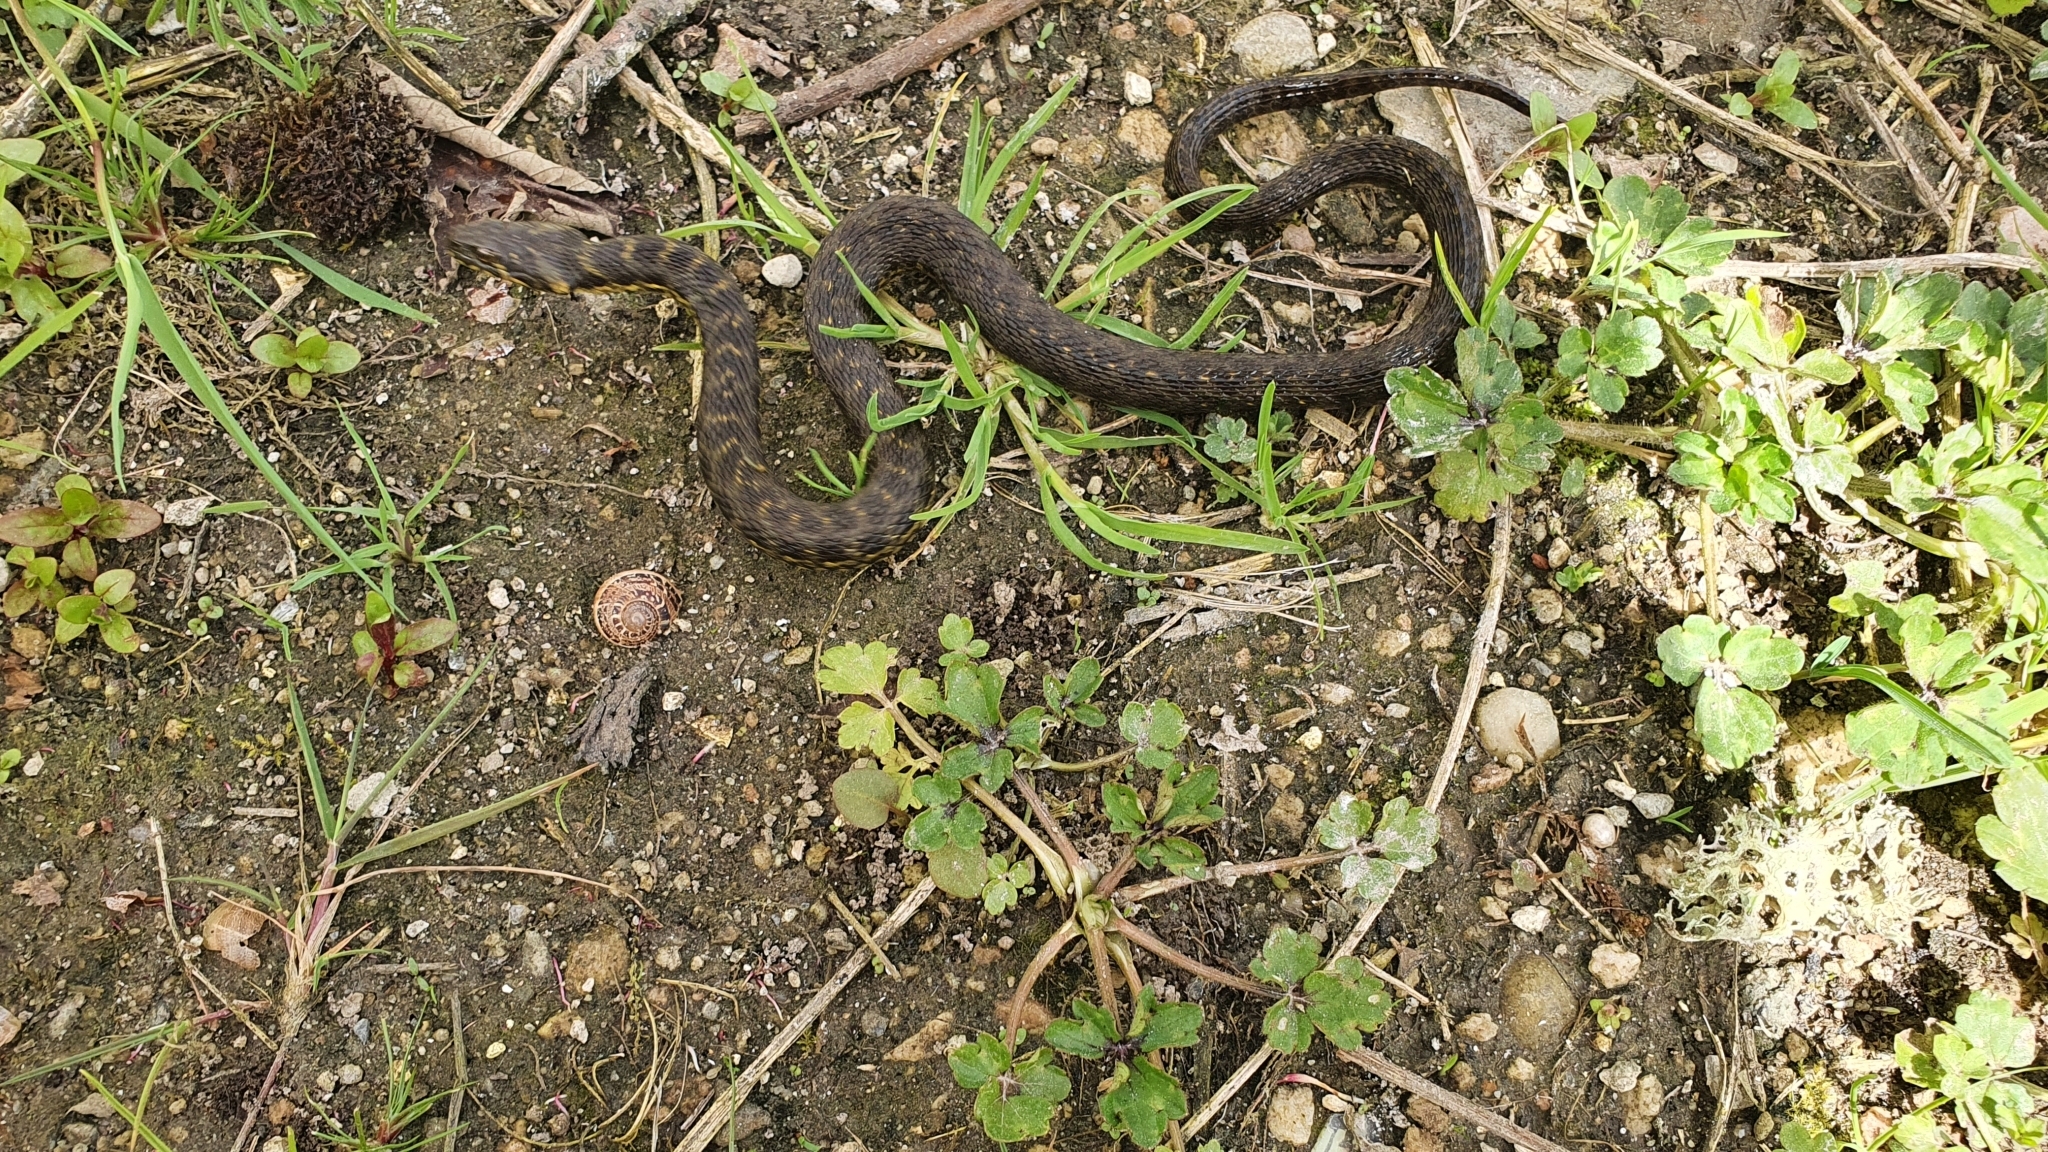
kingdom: Animalia
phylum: Chordata
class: Squamata
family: Colubridae
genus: Natrix
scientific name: Natrix maura
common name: Viperine water snake
